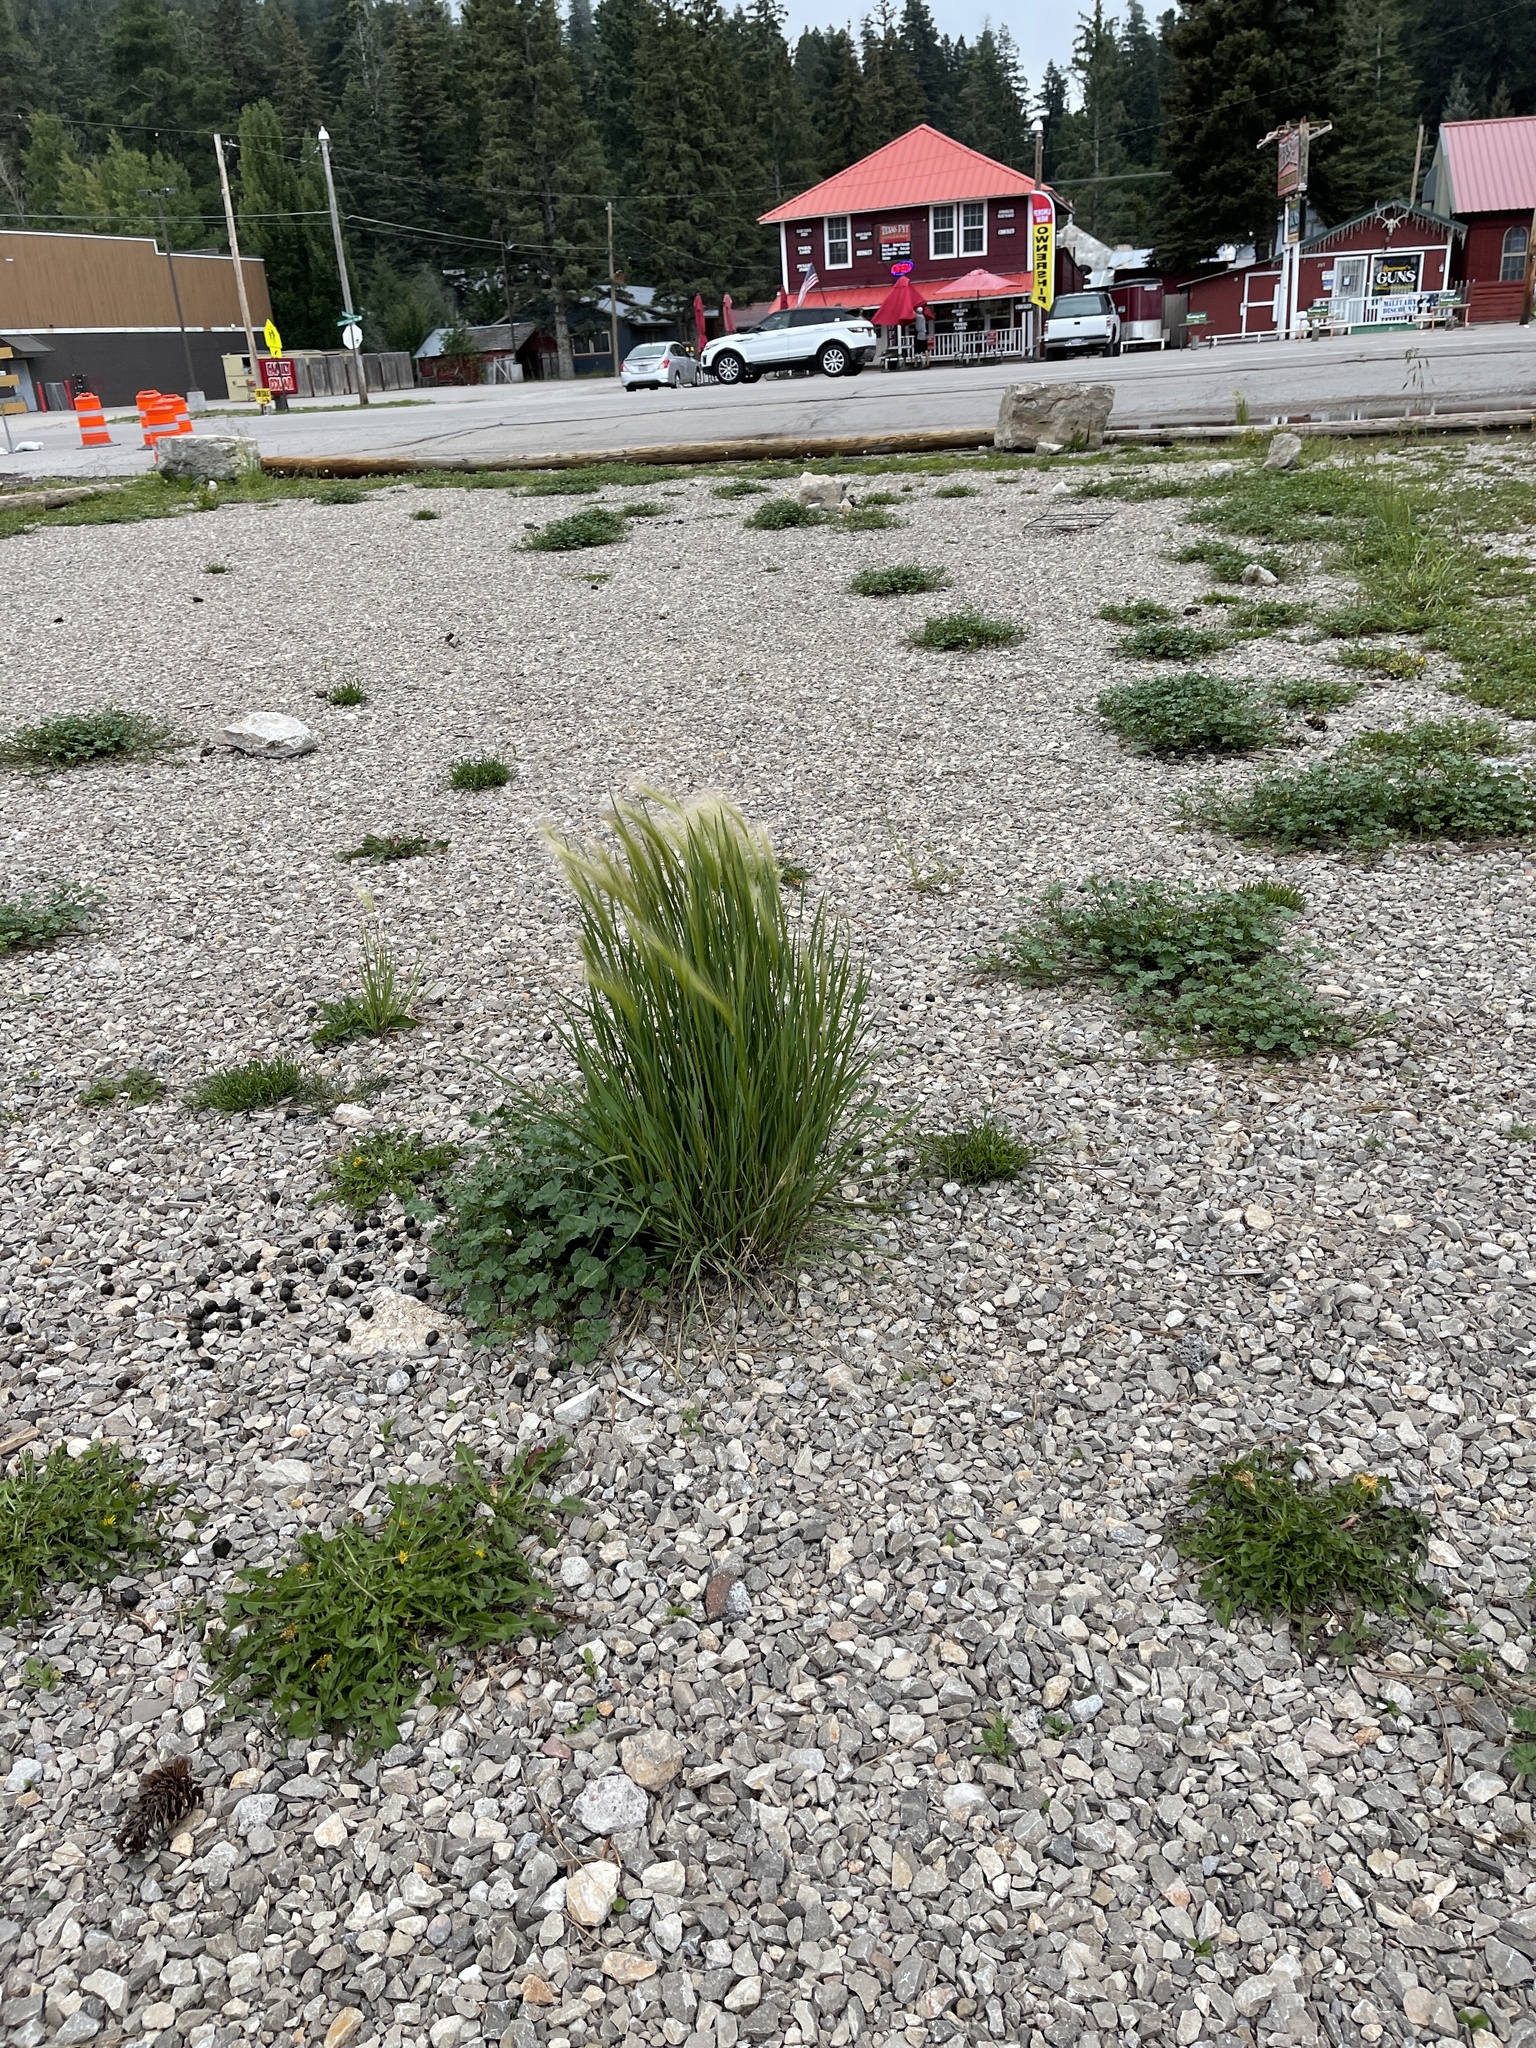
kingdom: Plantae
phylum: Tracheophyta
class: Liliopsida
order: Poales
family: Poaceae
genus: Hordeum
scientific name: Hordeum jubatum
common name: Foxtail barley
